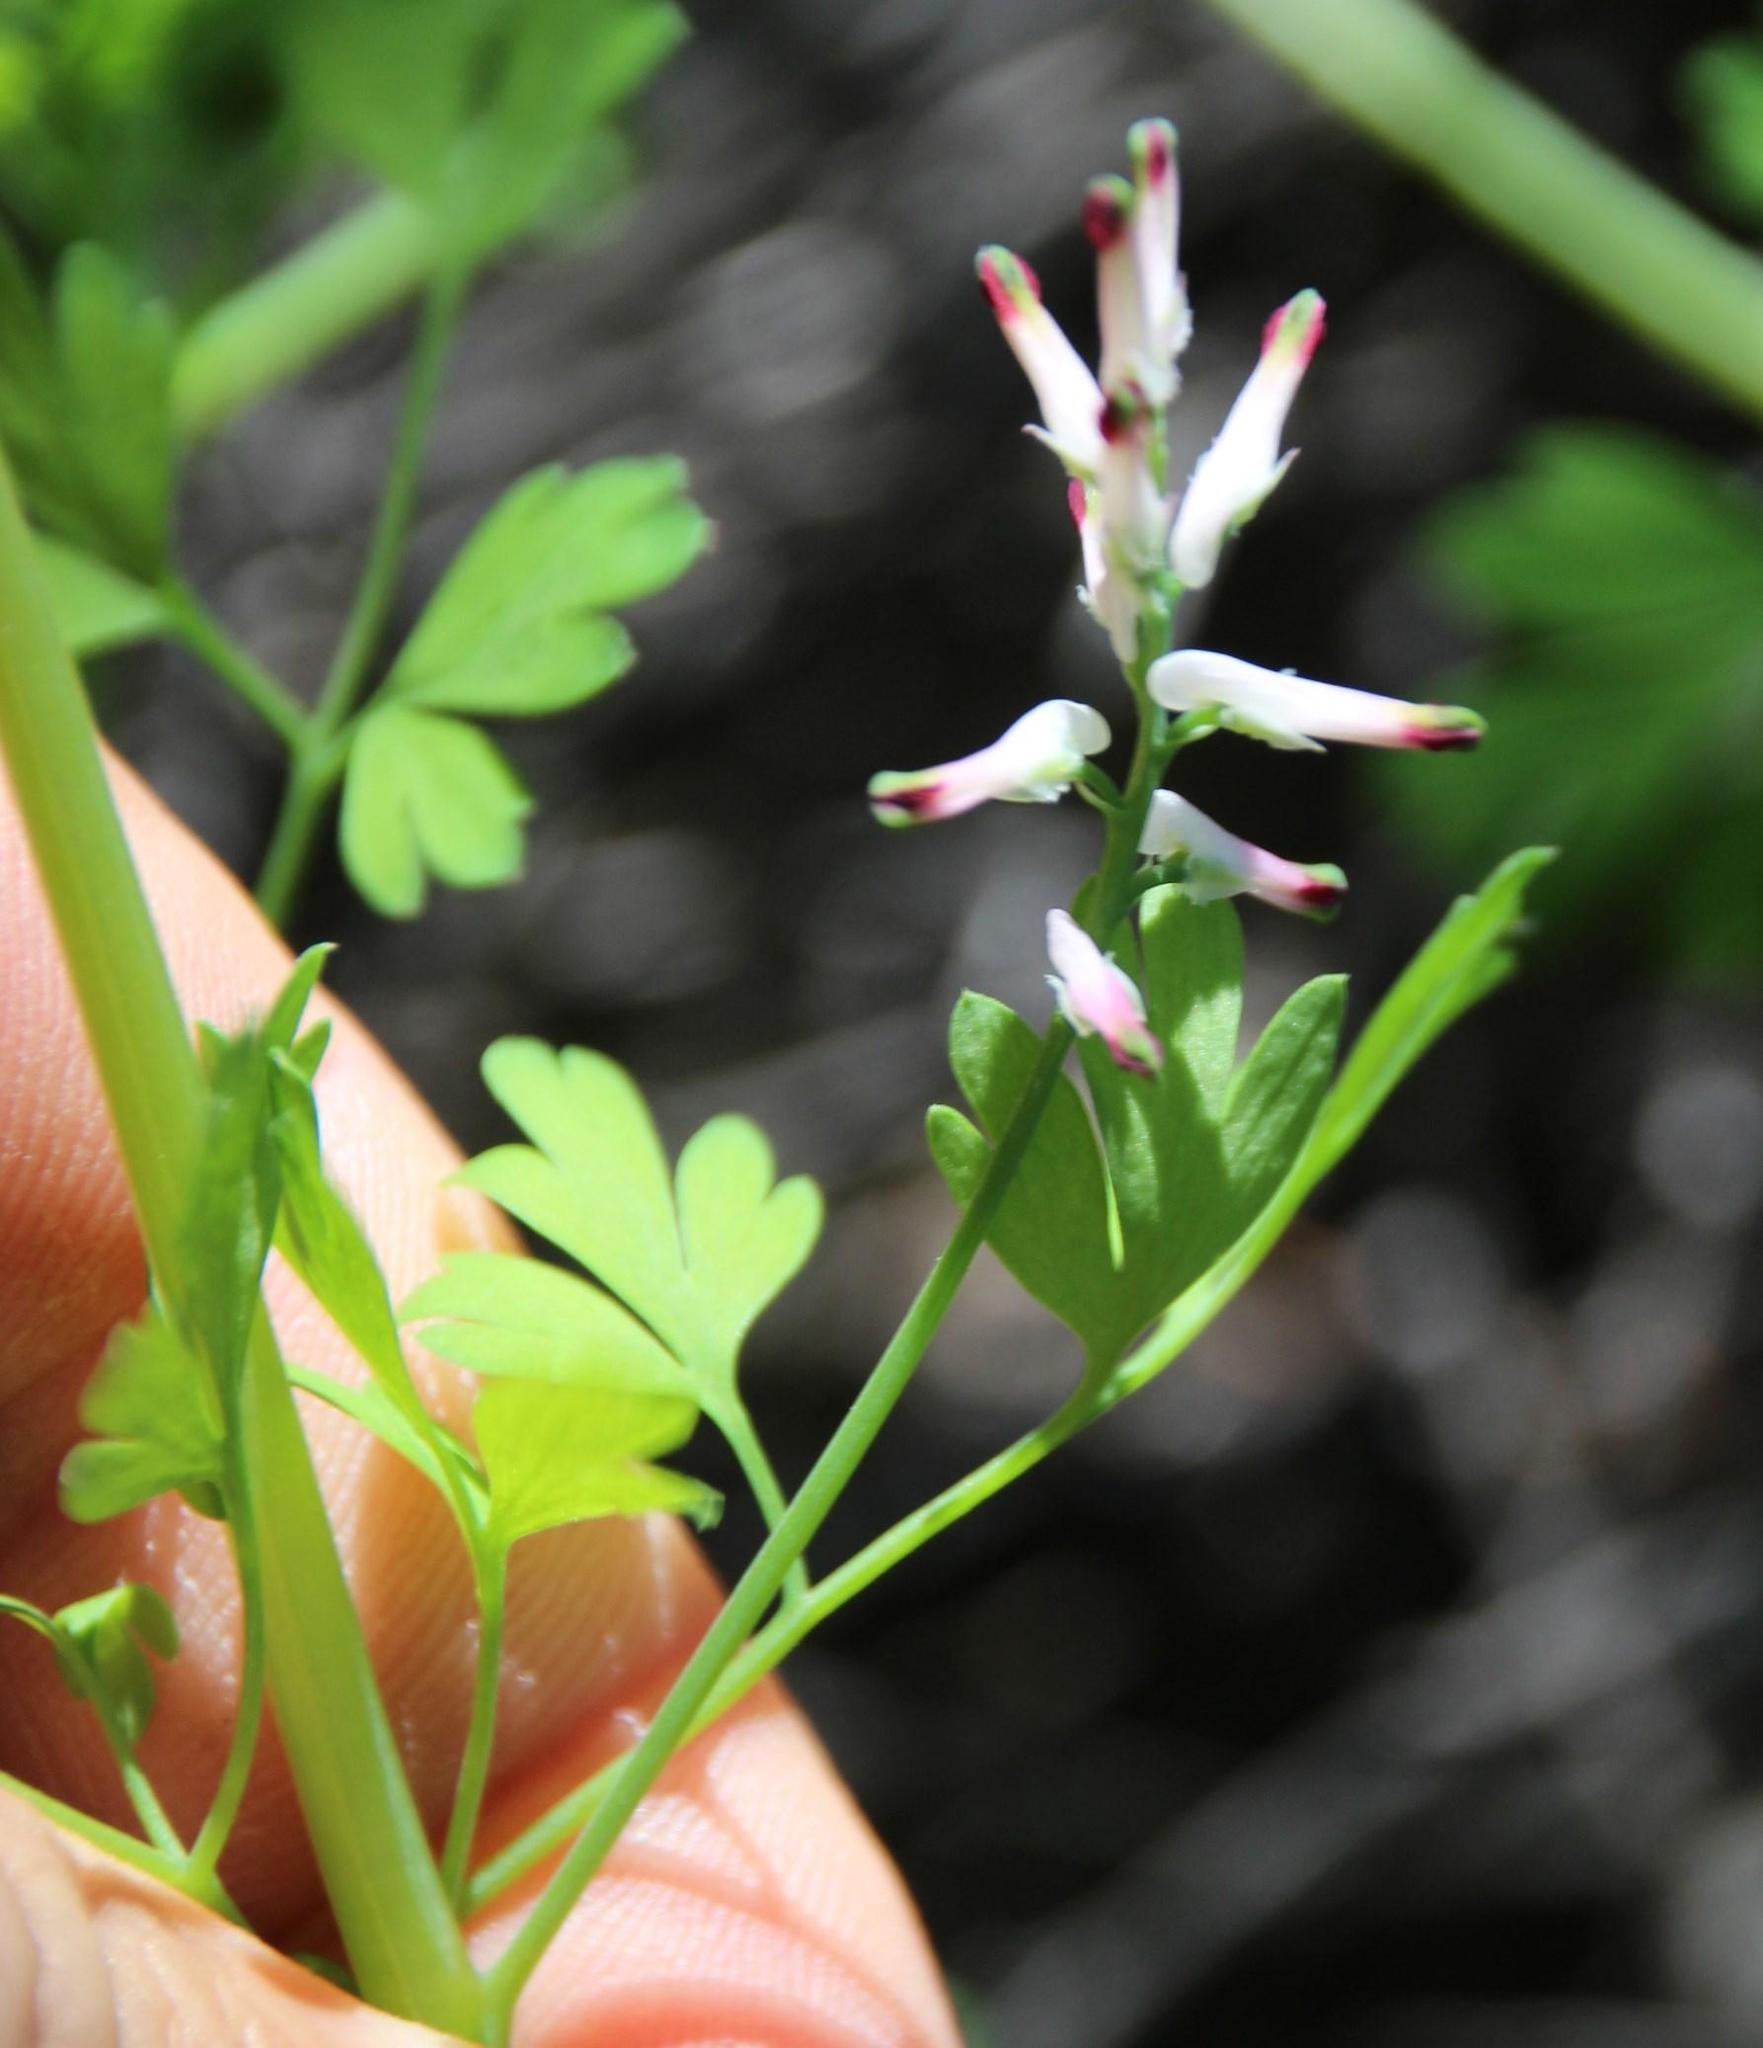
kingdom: Plantae
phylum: Tracheophyta
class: Magnoliopsida
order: Ranunculales
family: Papaveraceae
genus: Fumaria
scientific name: Fumaria muralis
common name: Common ramping-fumitory
